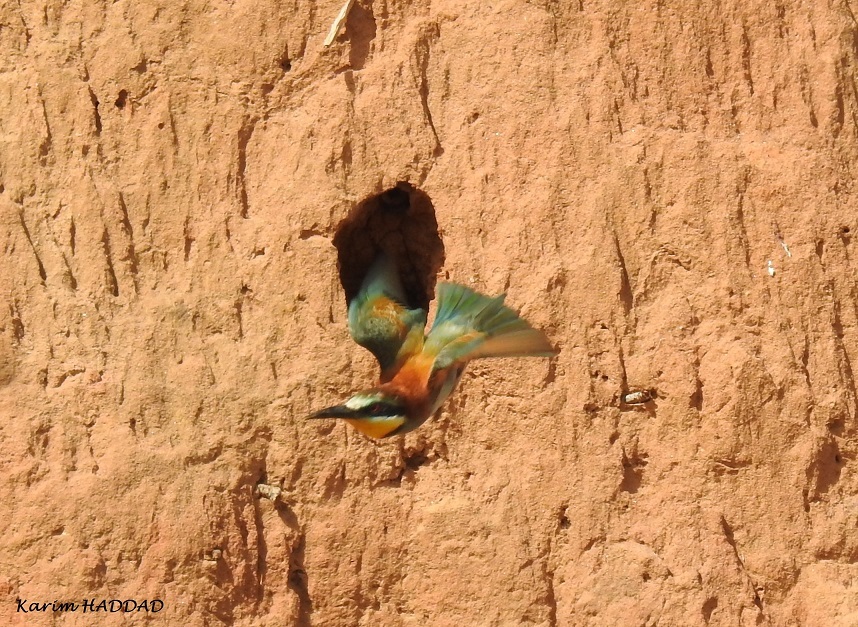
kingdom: Animalia
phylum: Chordata
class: Aves
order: Coraciiformes
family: Meropidae
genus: Merops
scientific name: Merops apiaster
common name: European bee-eater
